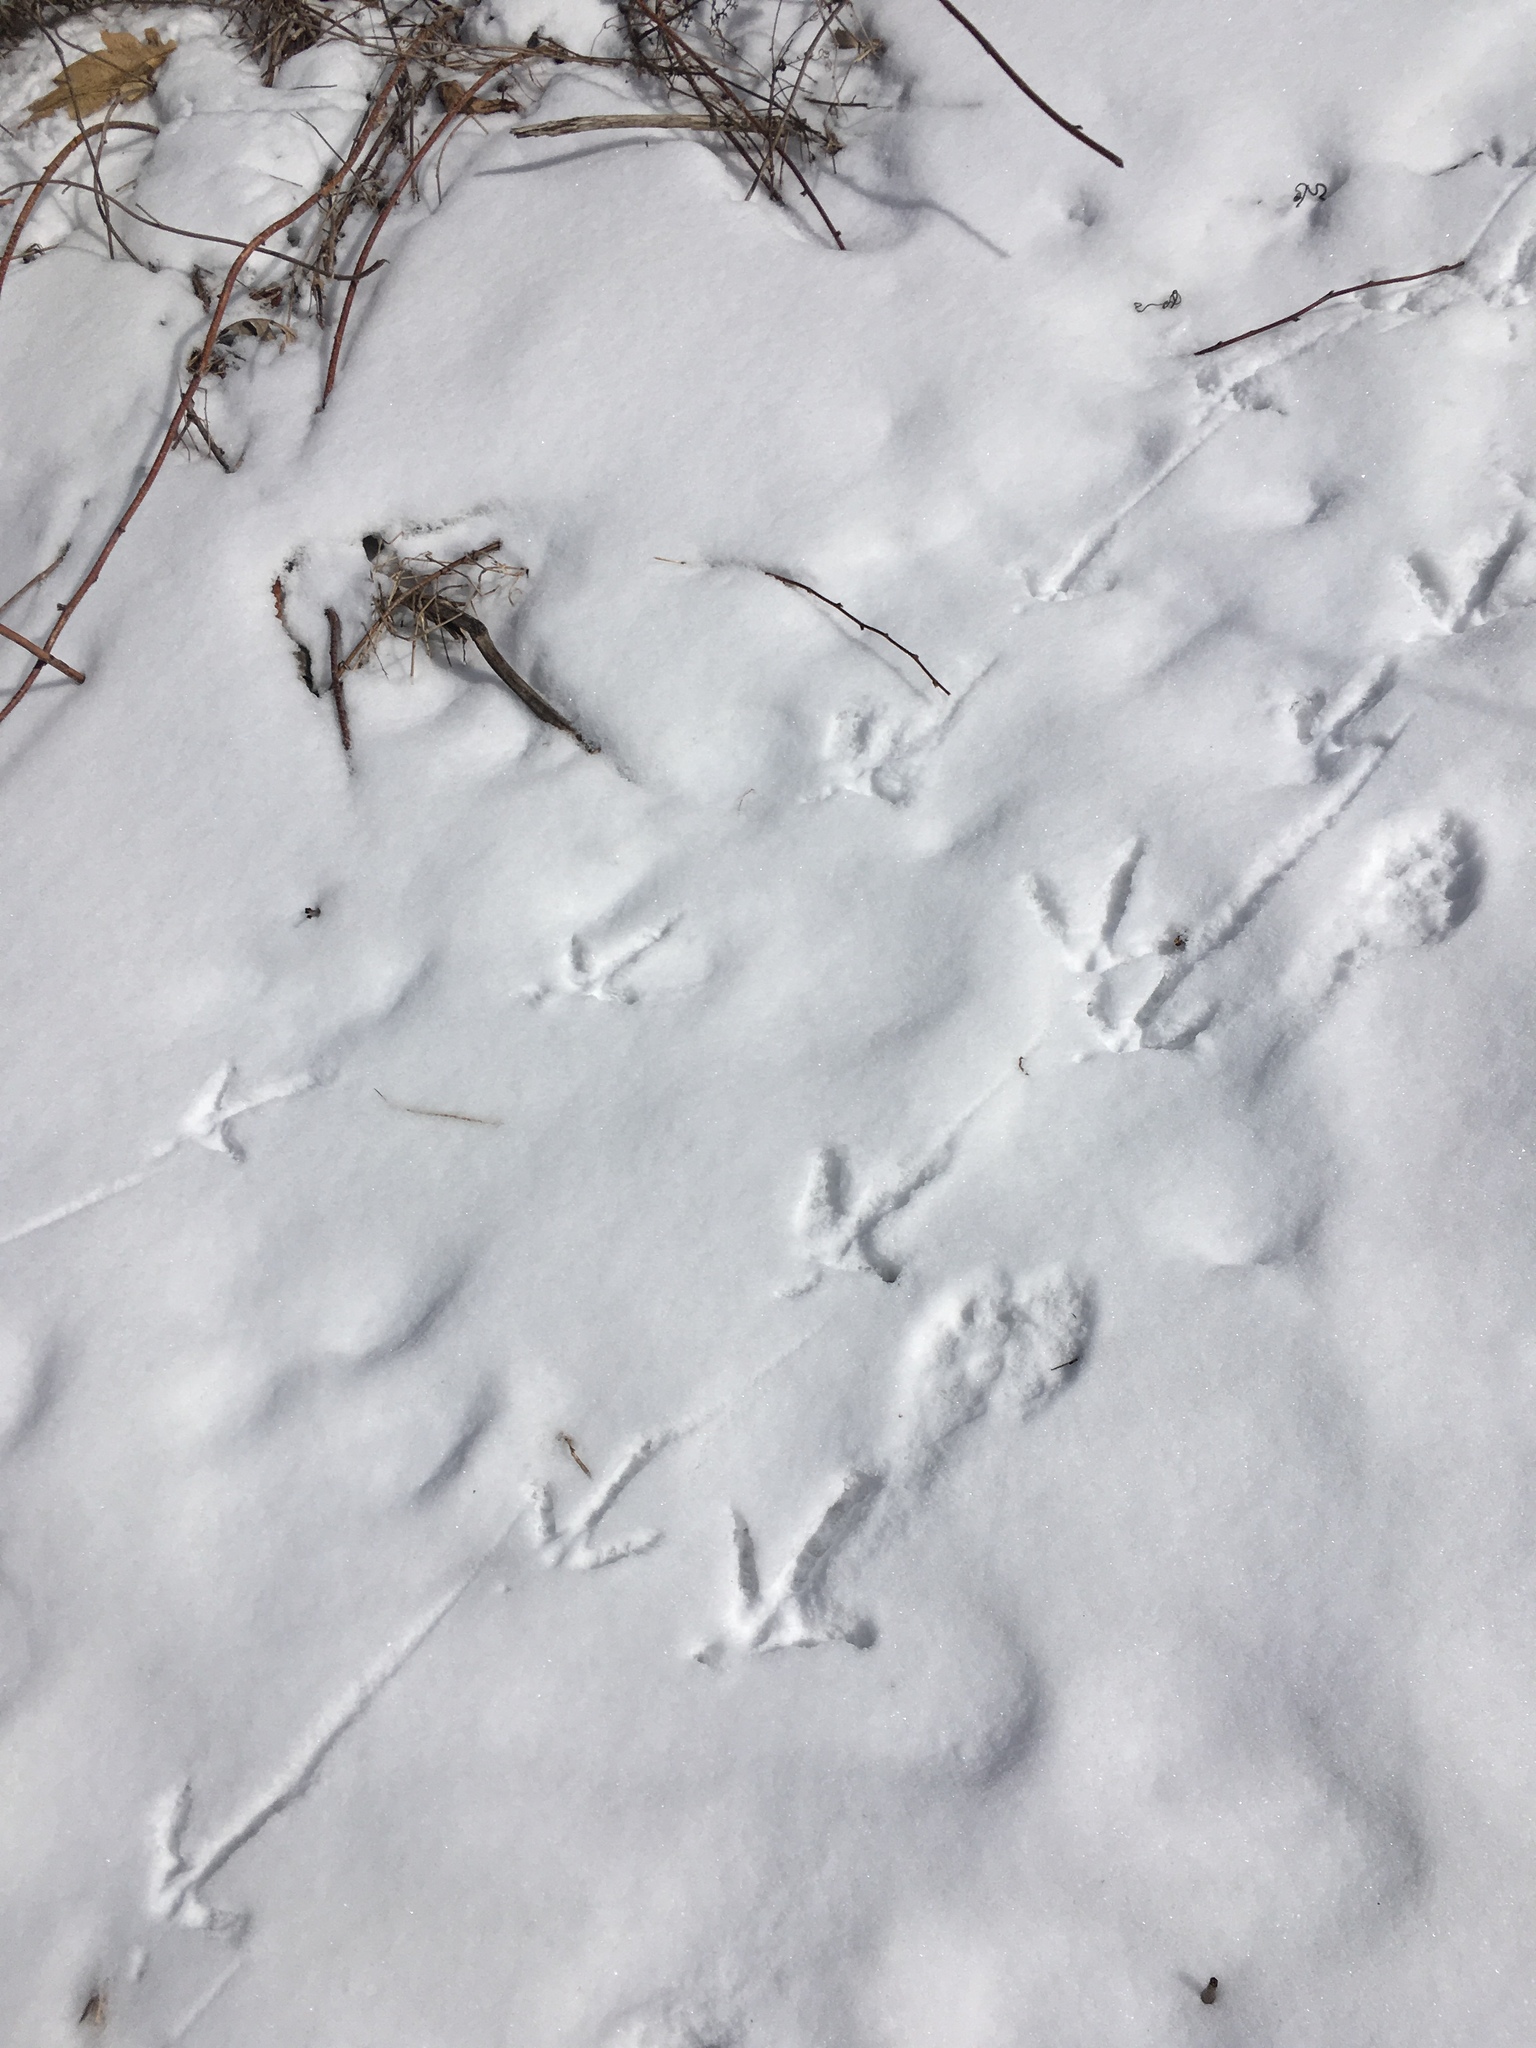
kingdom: Animalia
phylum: Chordata
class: Aves
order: Galliformes
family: Phasianidae
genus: Meleagris
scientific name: Meleagris gallopavo
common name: Wild turkey
